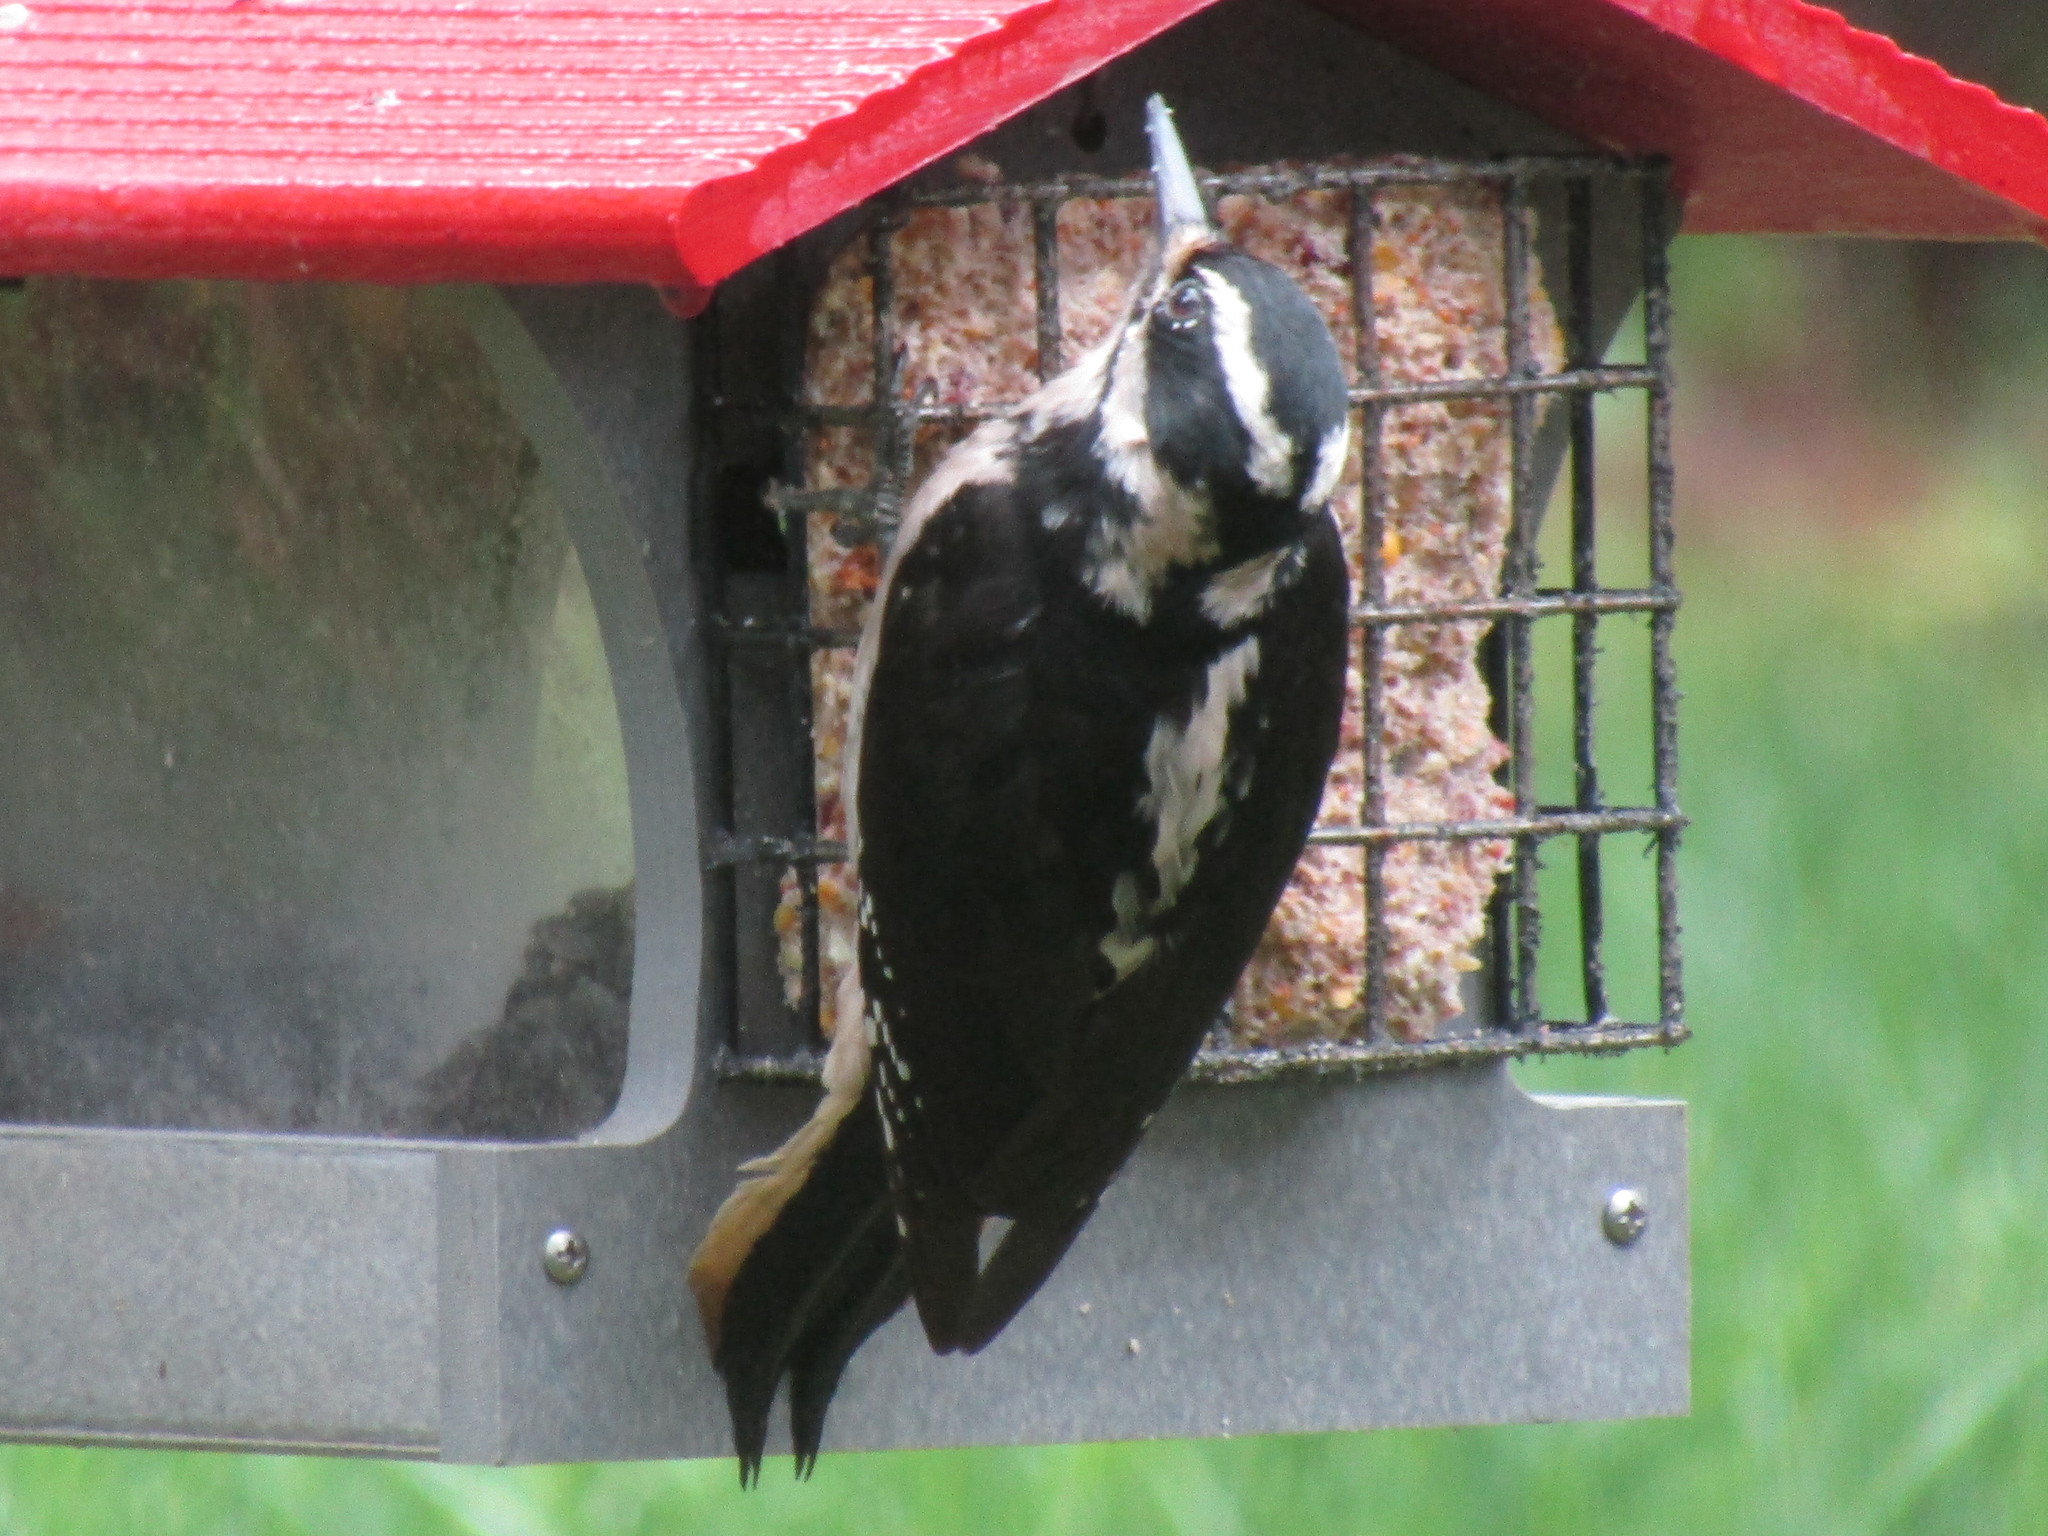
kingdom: Animalia
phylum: Chordata
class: Aves
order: Piciformes
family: Picidae
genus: Leuconotopicus
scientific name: Leuconotopicus villosus
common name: Hairy woodpecker
